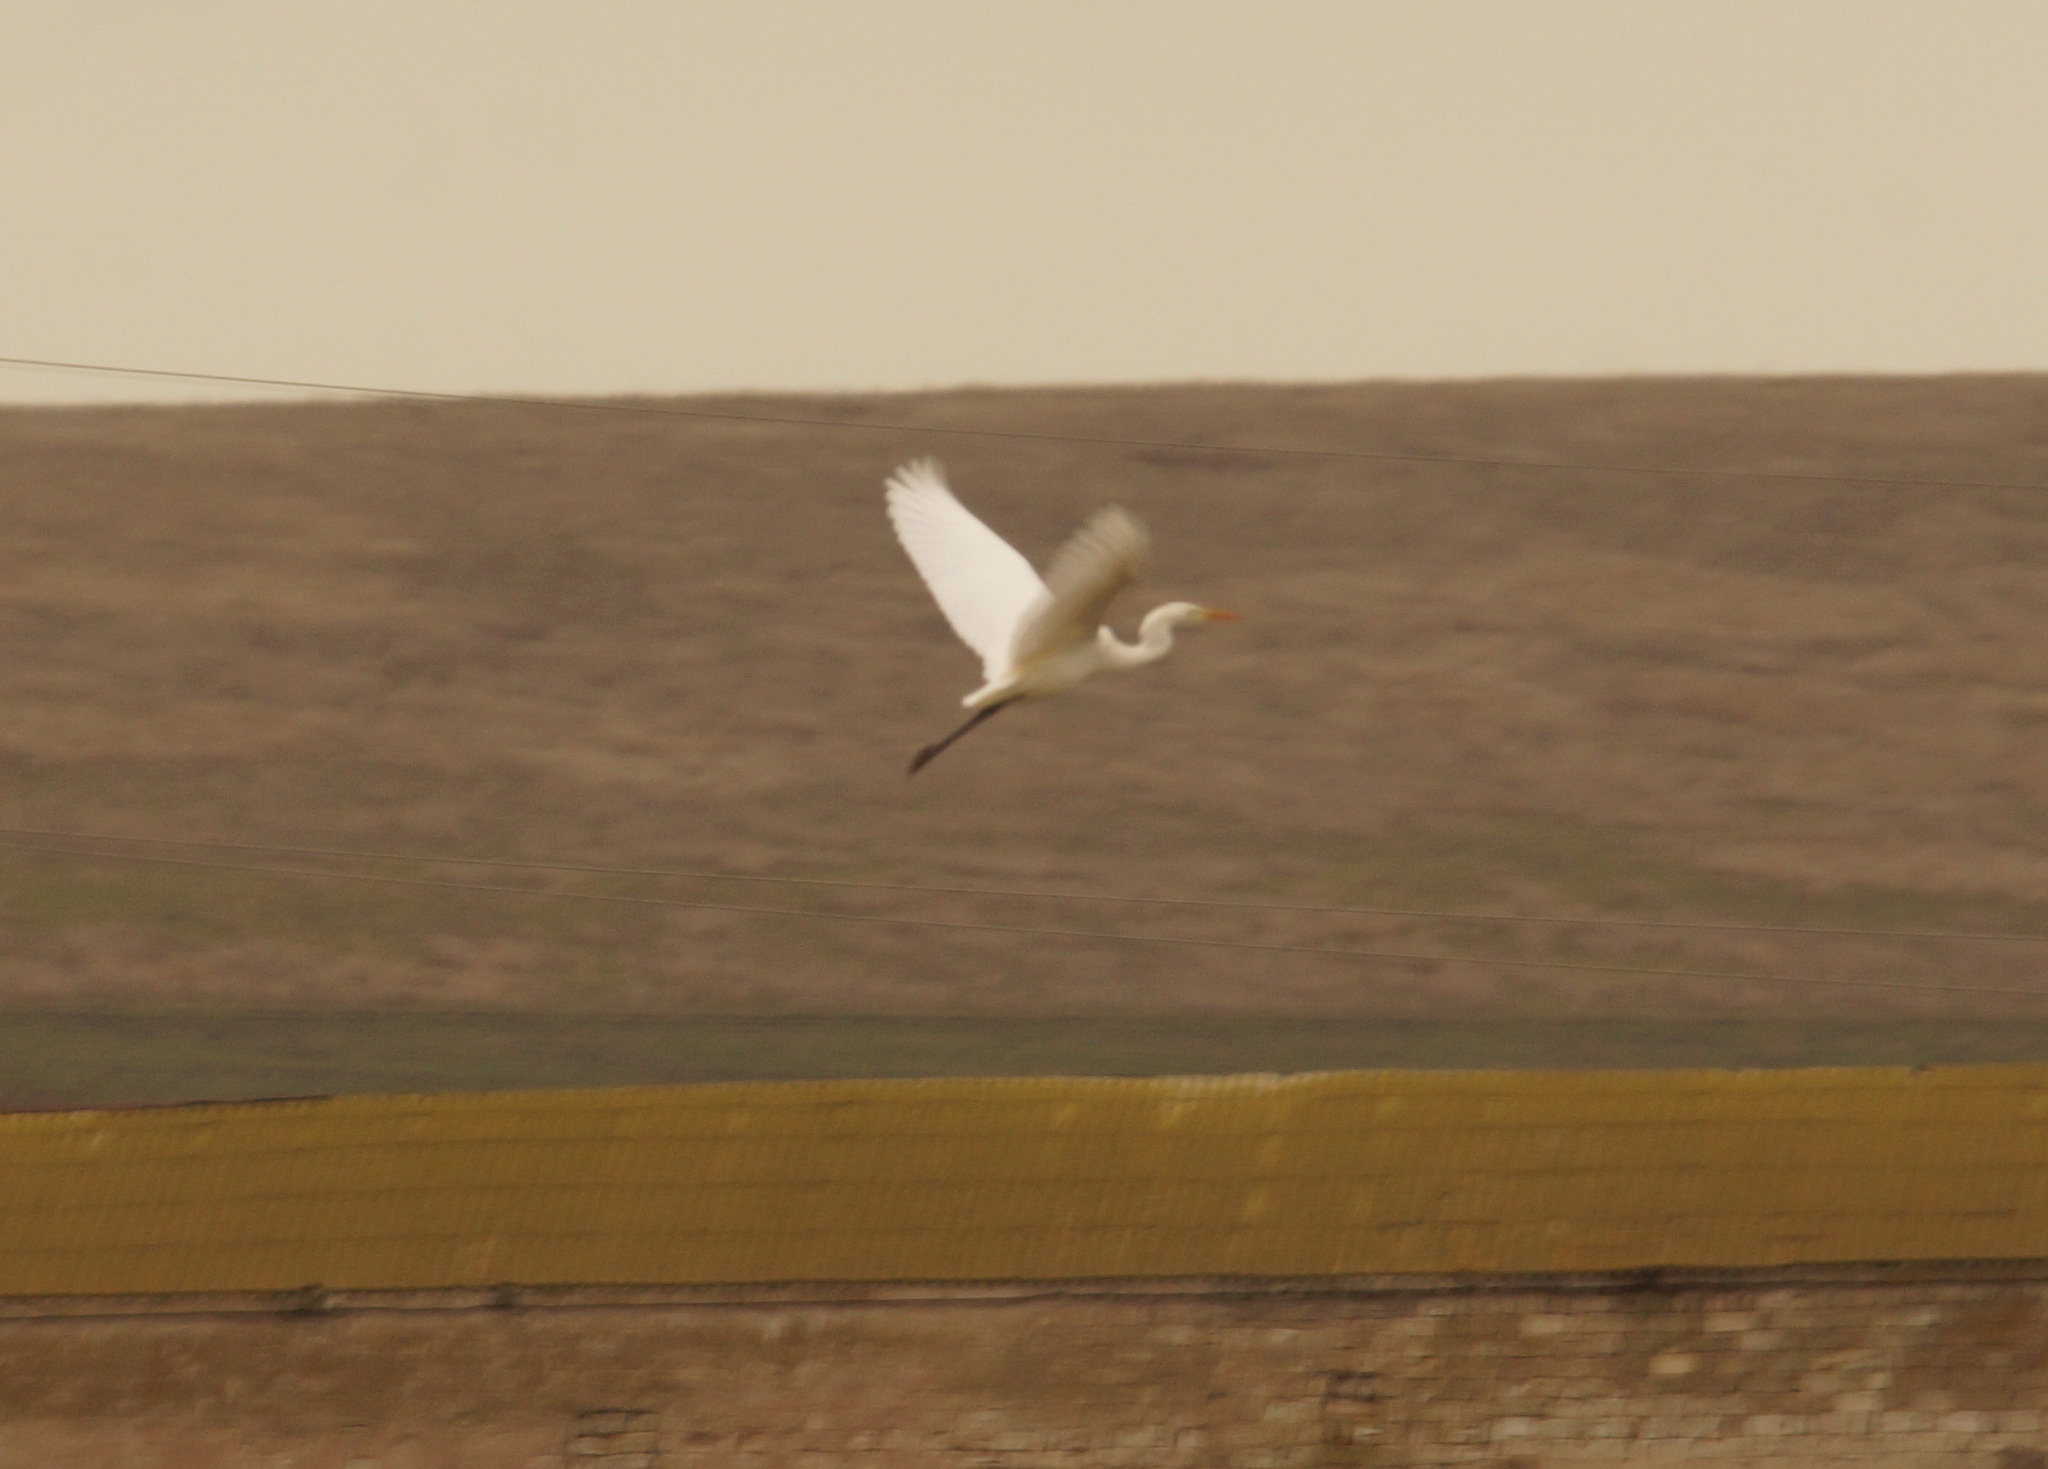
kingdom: Animalia
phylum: Chordata
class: Aves
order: Pelecaniformes
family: Ardeidae
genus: Ardea
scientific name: Ardea alba
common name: Great egret
